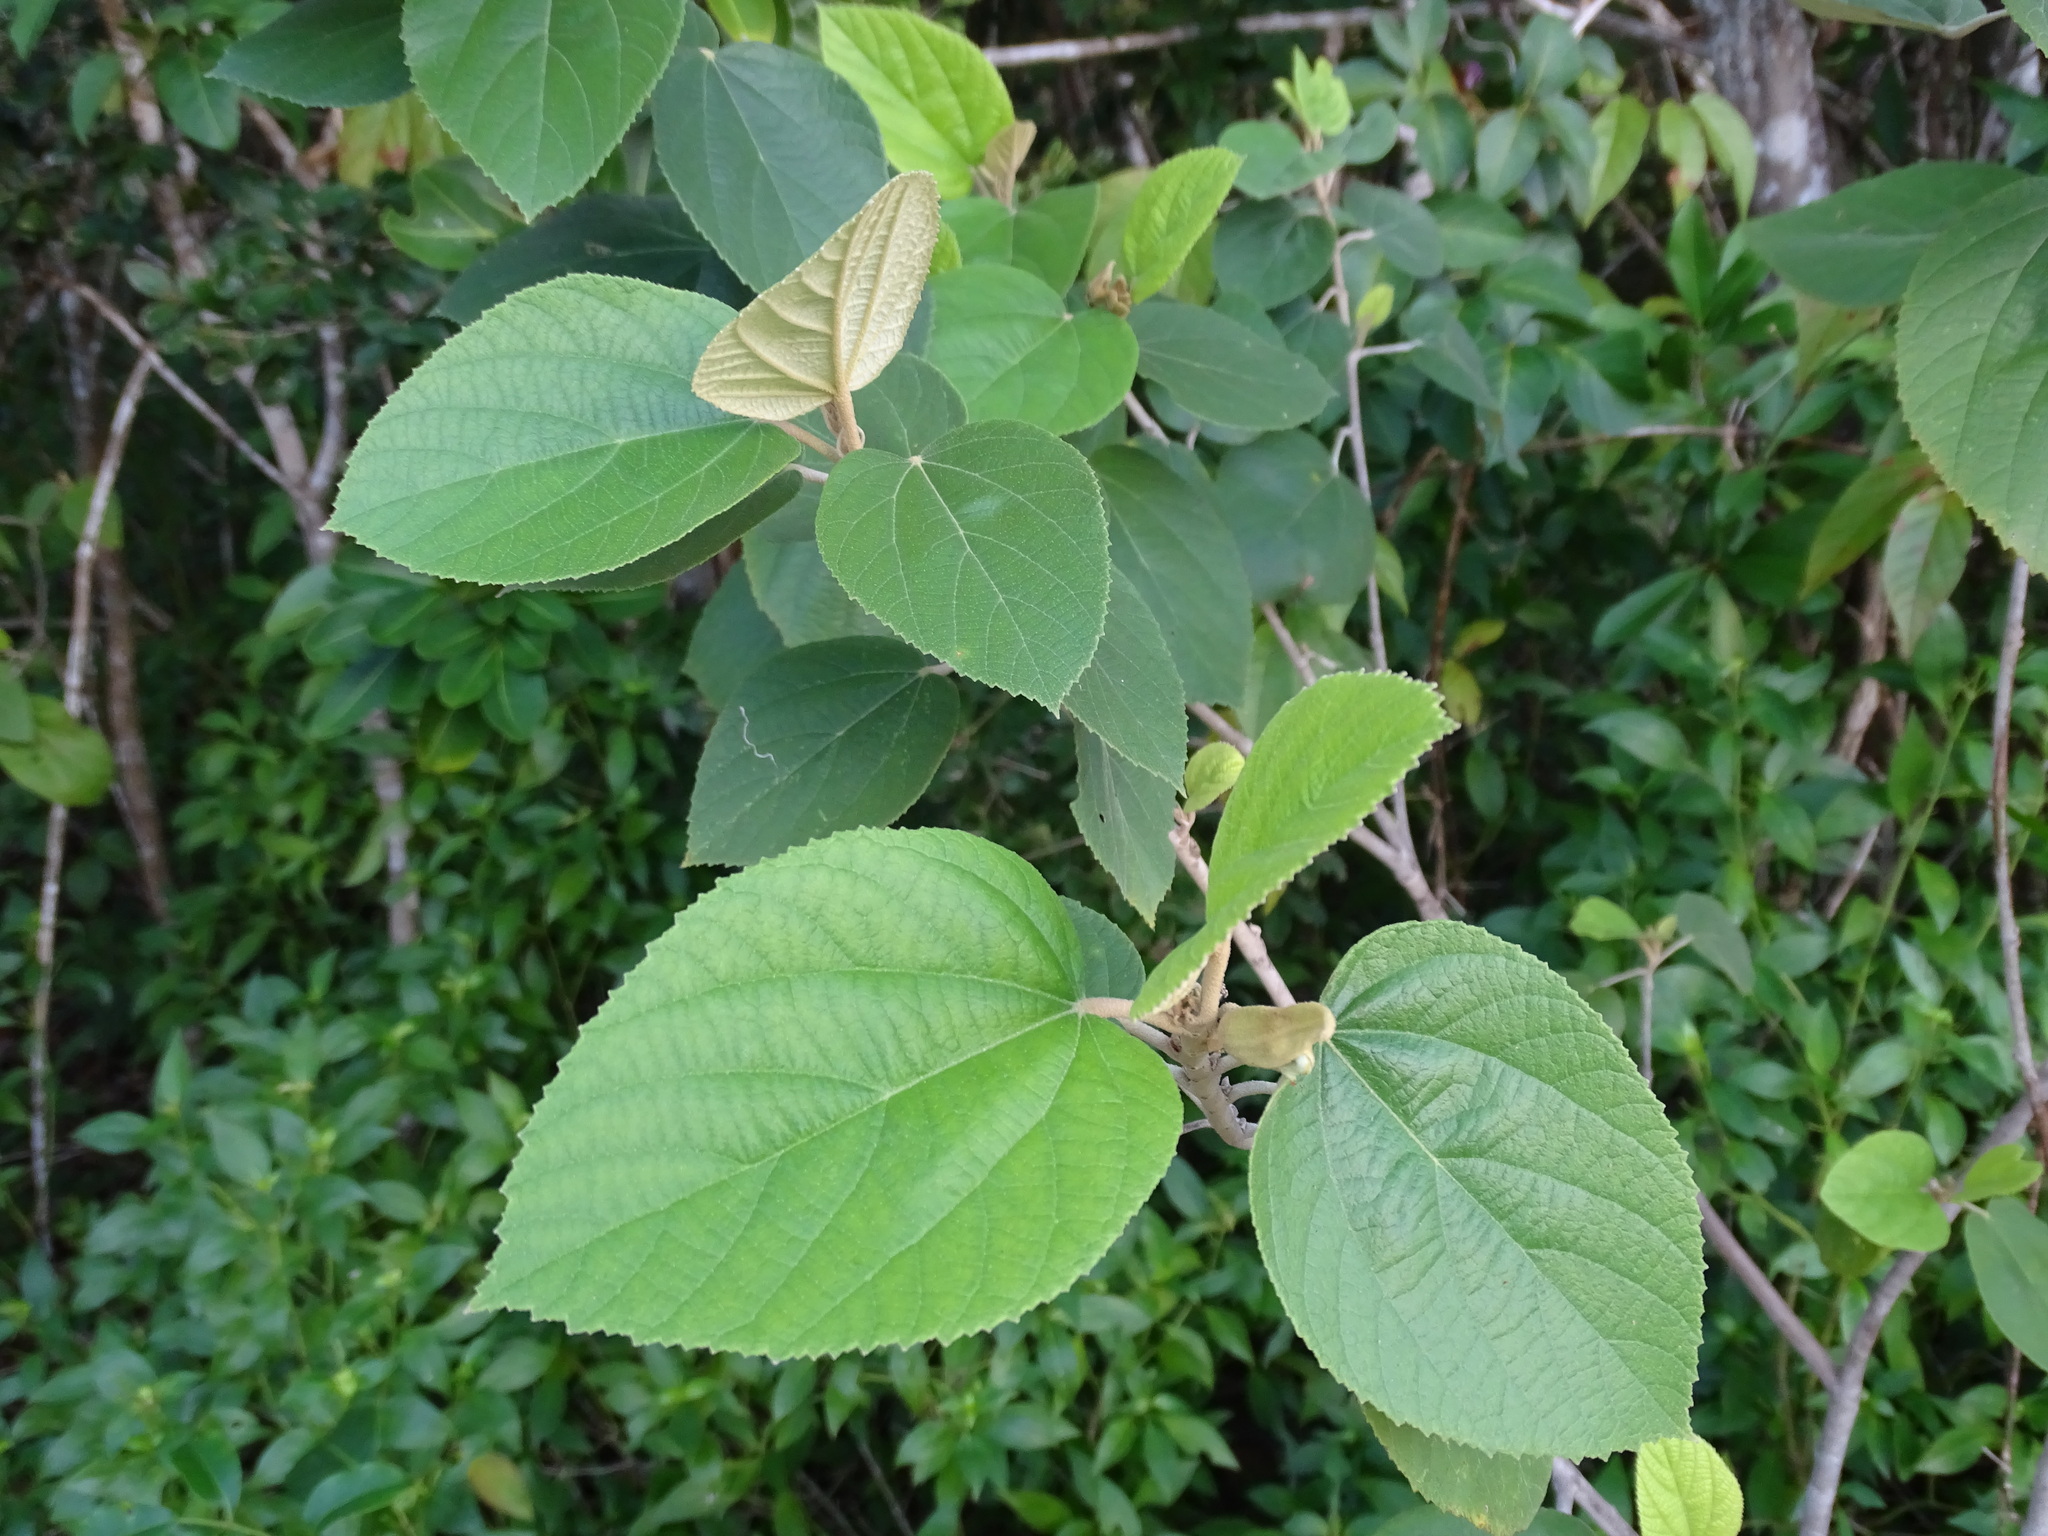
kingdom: Plantae
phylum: Tracheophyta
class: Magnoliopsida
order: Malvales
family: Malvaceae
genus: Helicteres
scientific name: Helicteres baruensis
